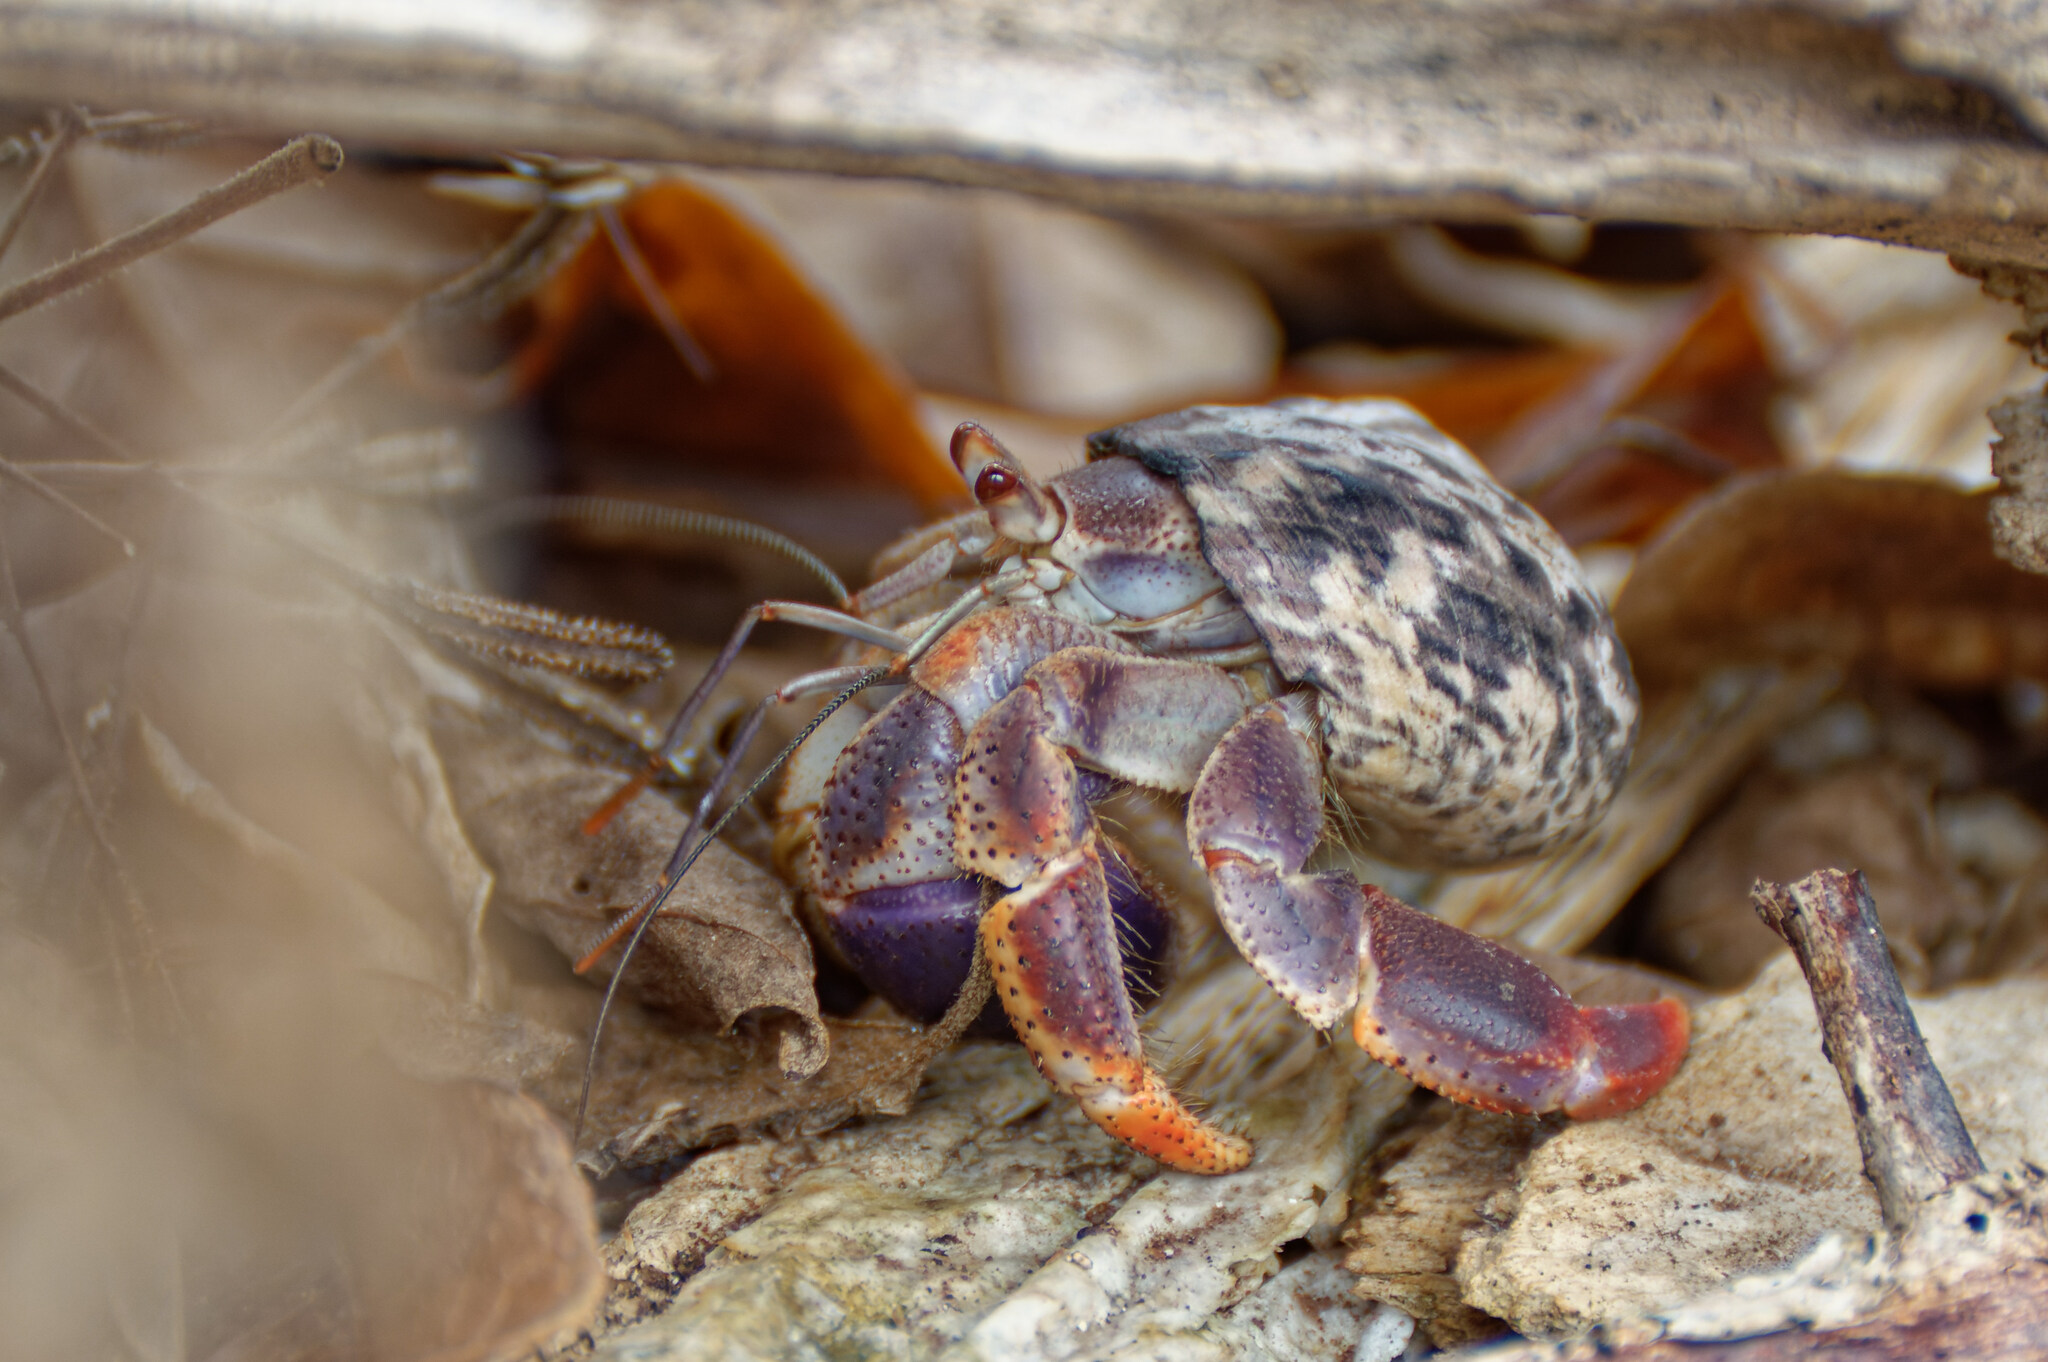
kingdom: Animalia
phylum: Arthropoda
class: Malacostraca
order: Decapoda
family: Coenobitidae
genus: Coenobita
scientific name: Coenobita clypeatus
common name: Caribbean hermit crab
